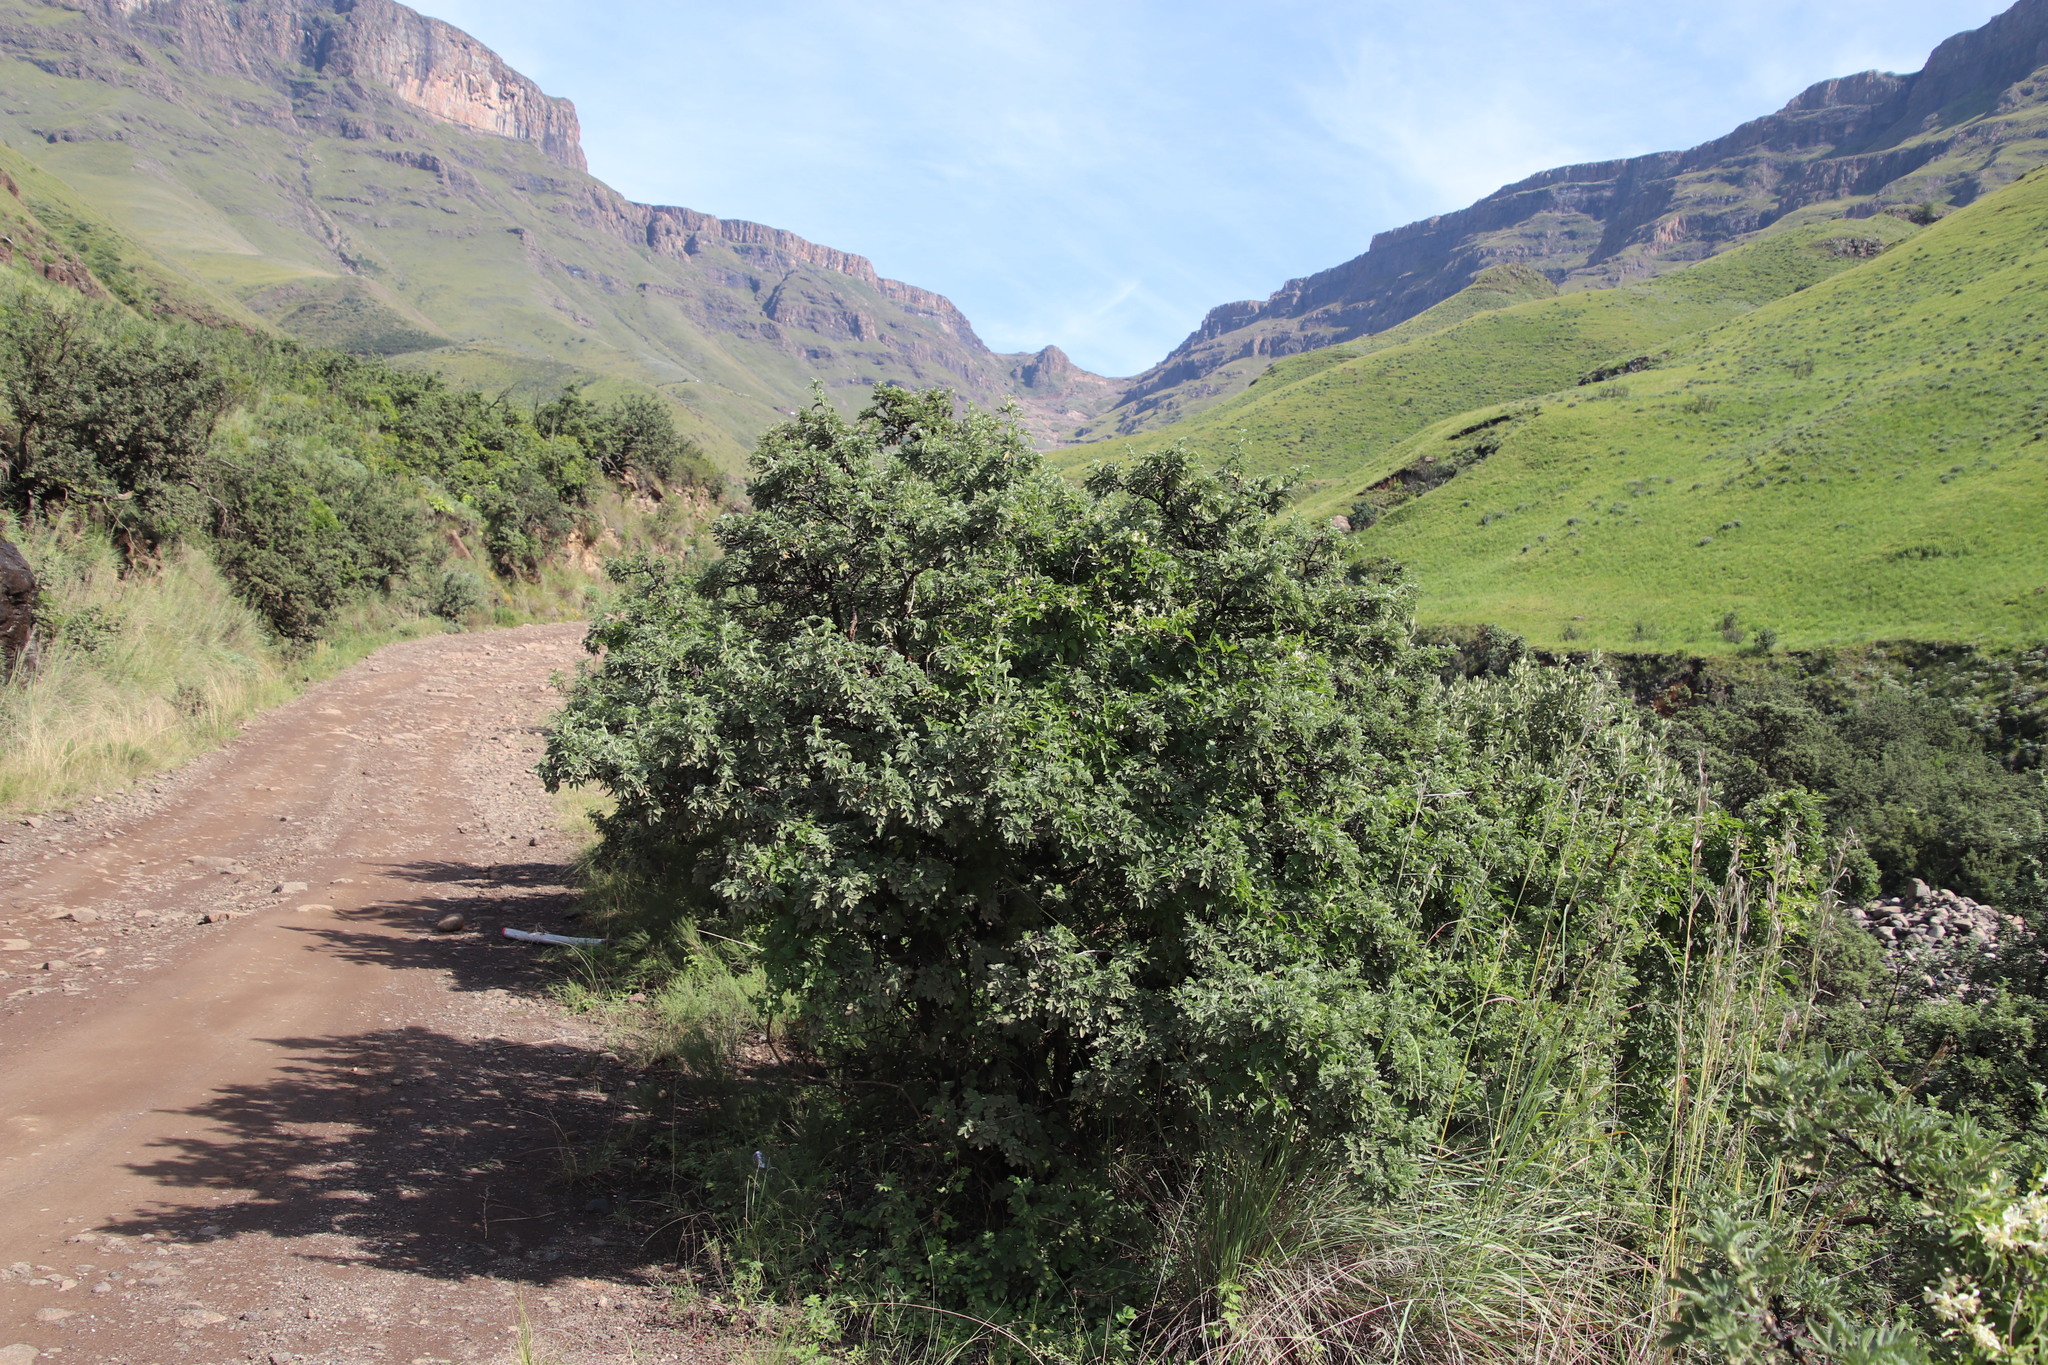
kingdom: Plantae
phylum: Tracheophyta
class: Magnoliopsida
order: Rosales
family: Rosaceae
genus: Leucosidea
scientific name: Leucosidea sericea
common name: Oldwood
